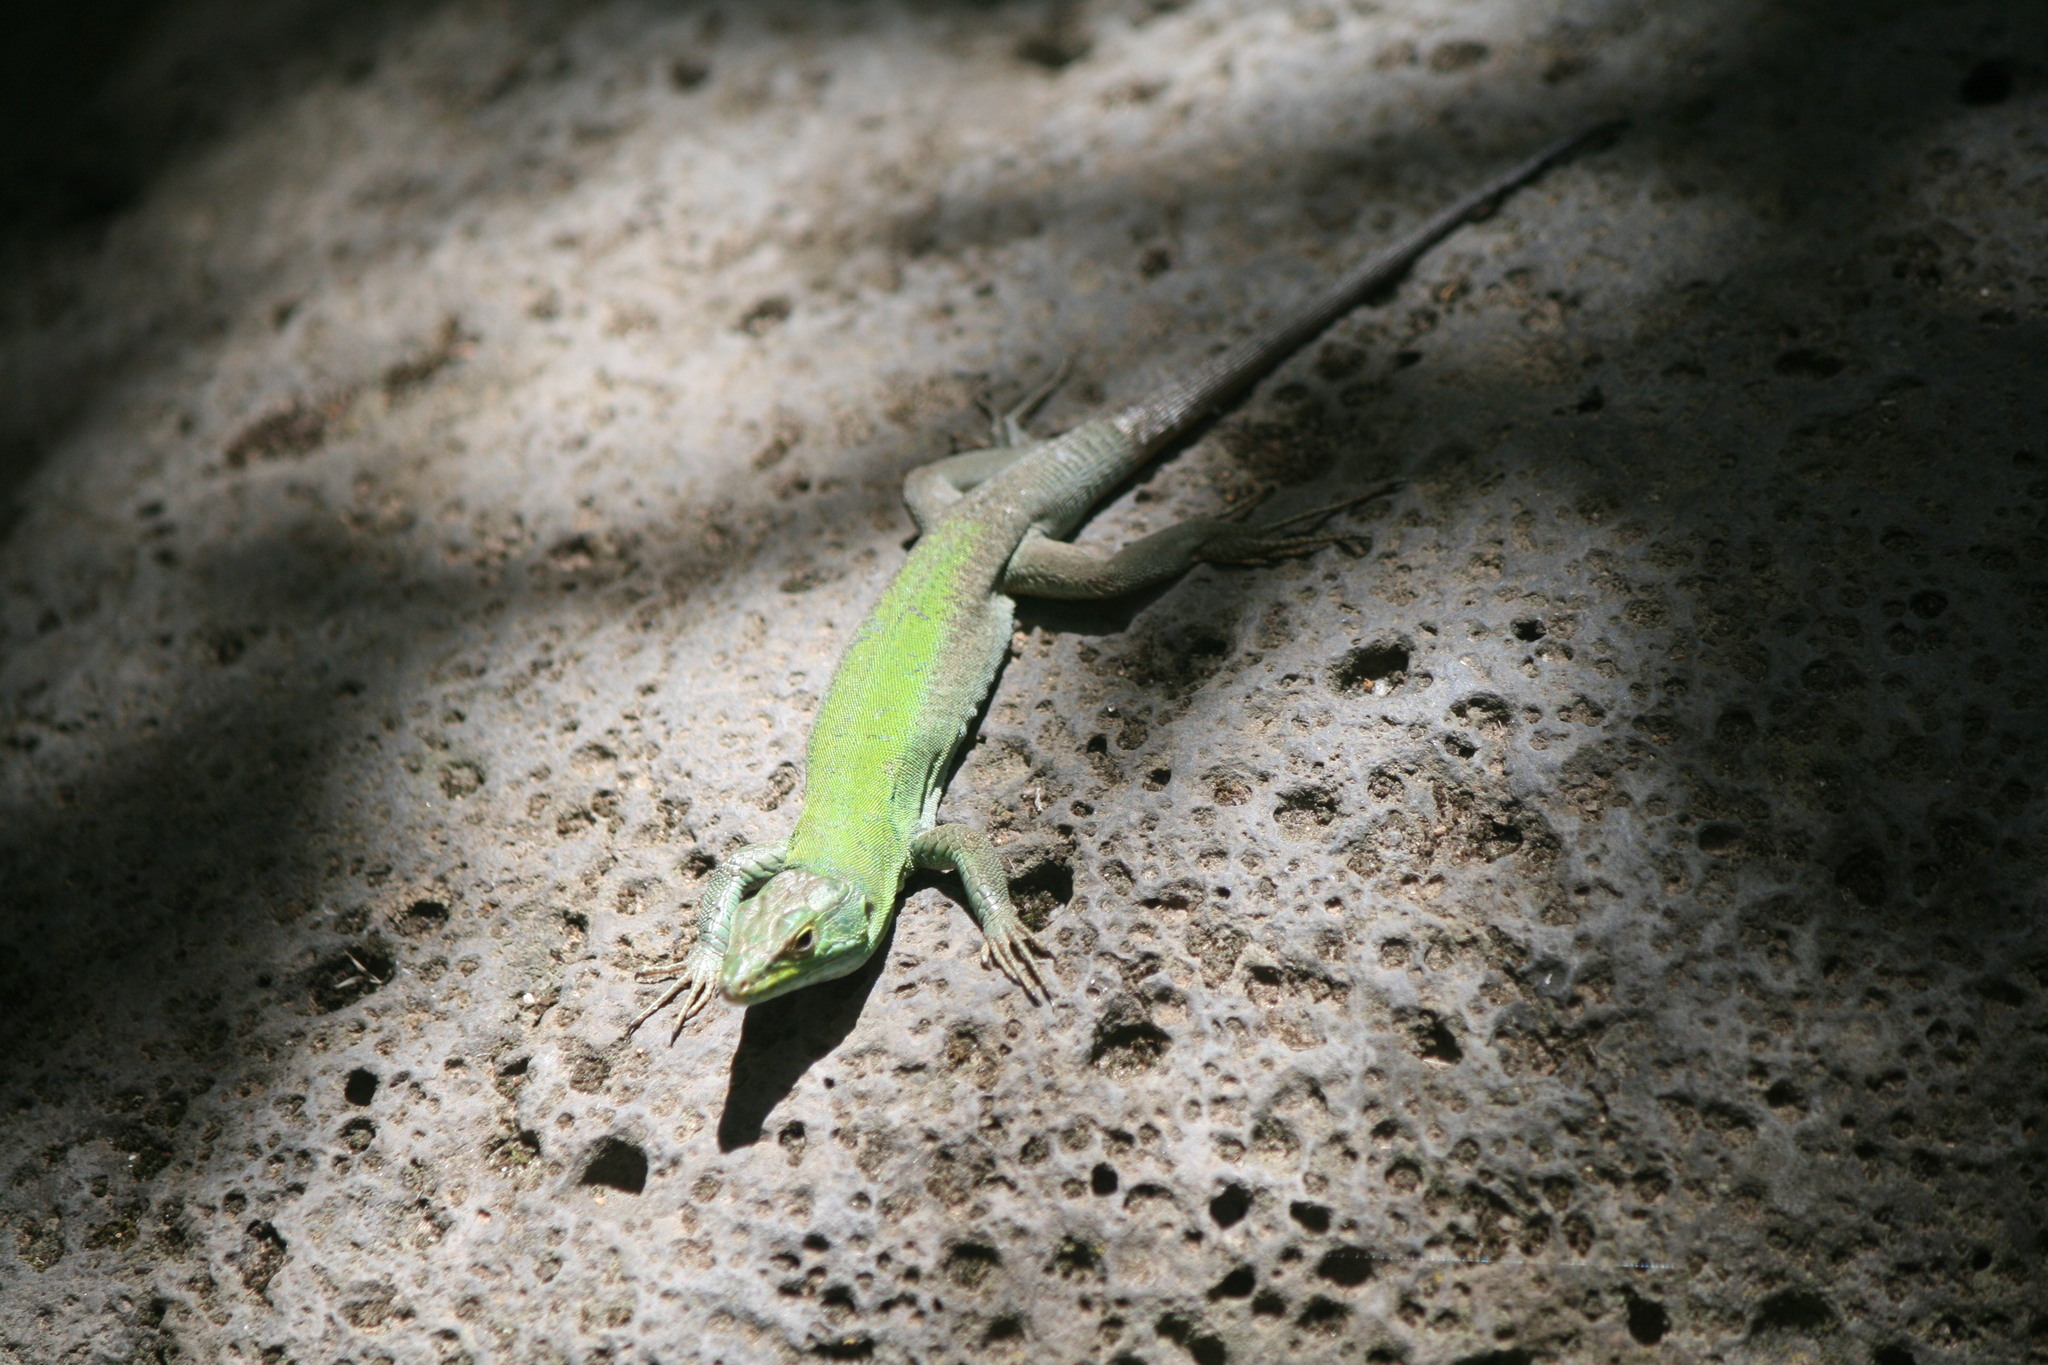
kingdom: Animalia
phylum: Chordata
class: Squamata
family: Lacertidae
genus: Podarcis
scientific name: Podarcis siculus
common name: Italian wall lizard
